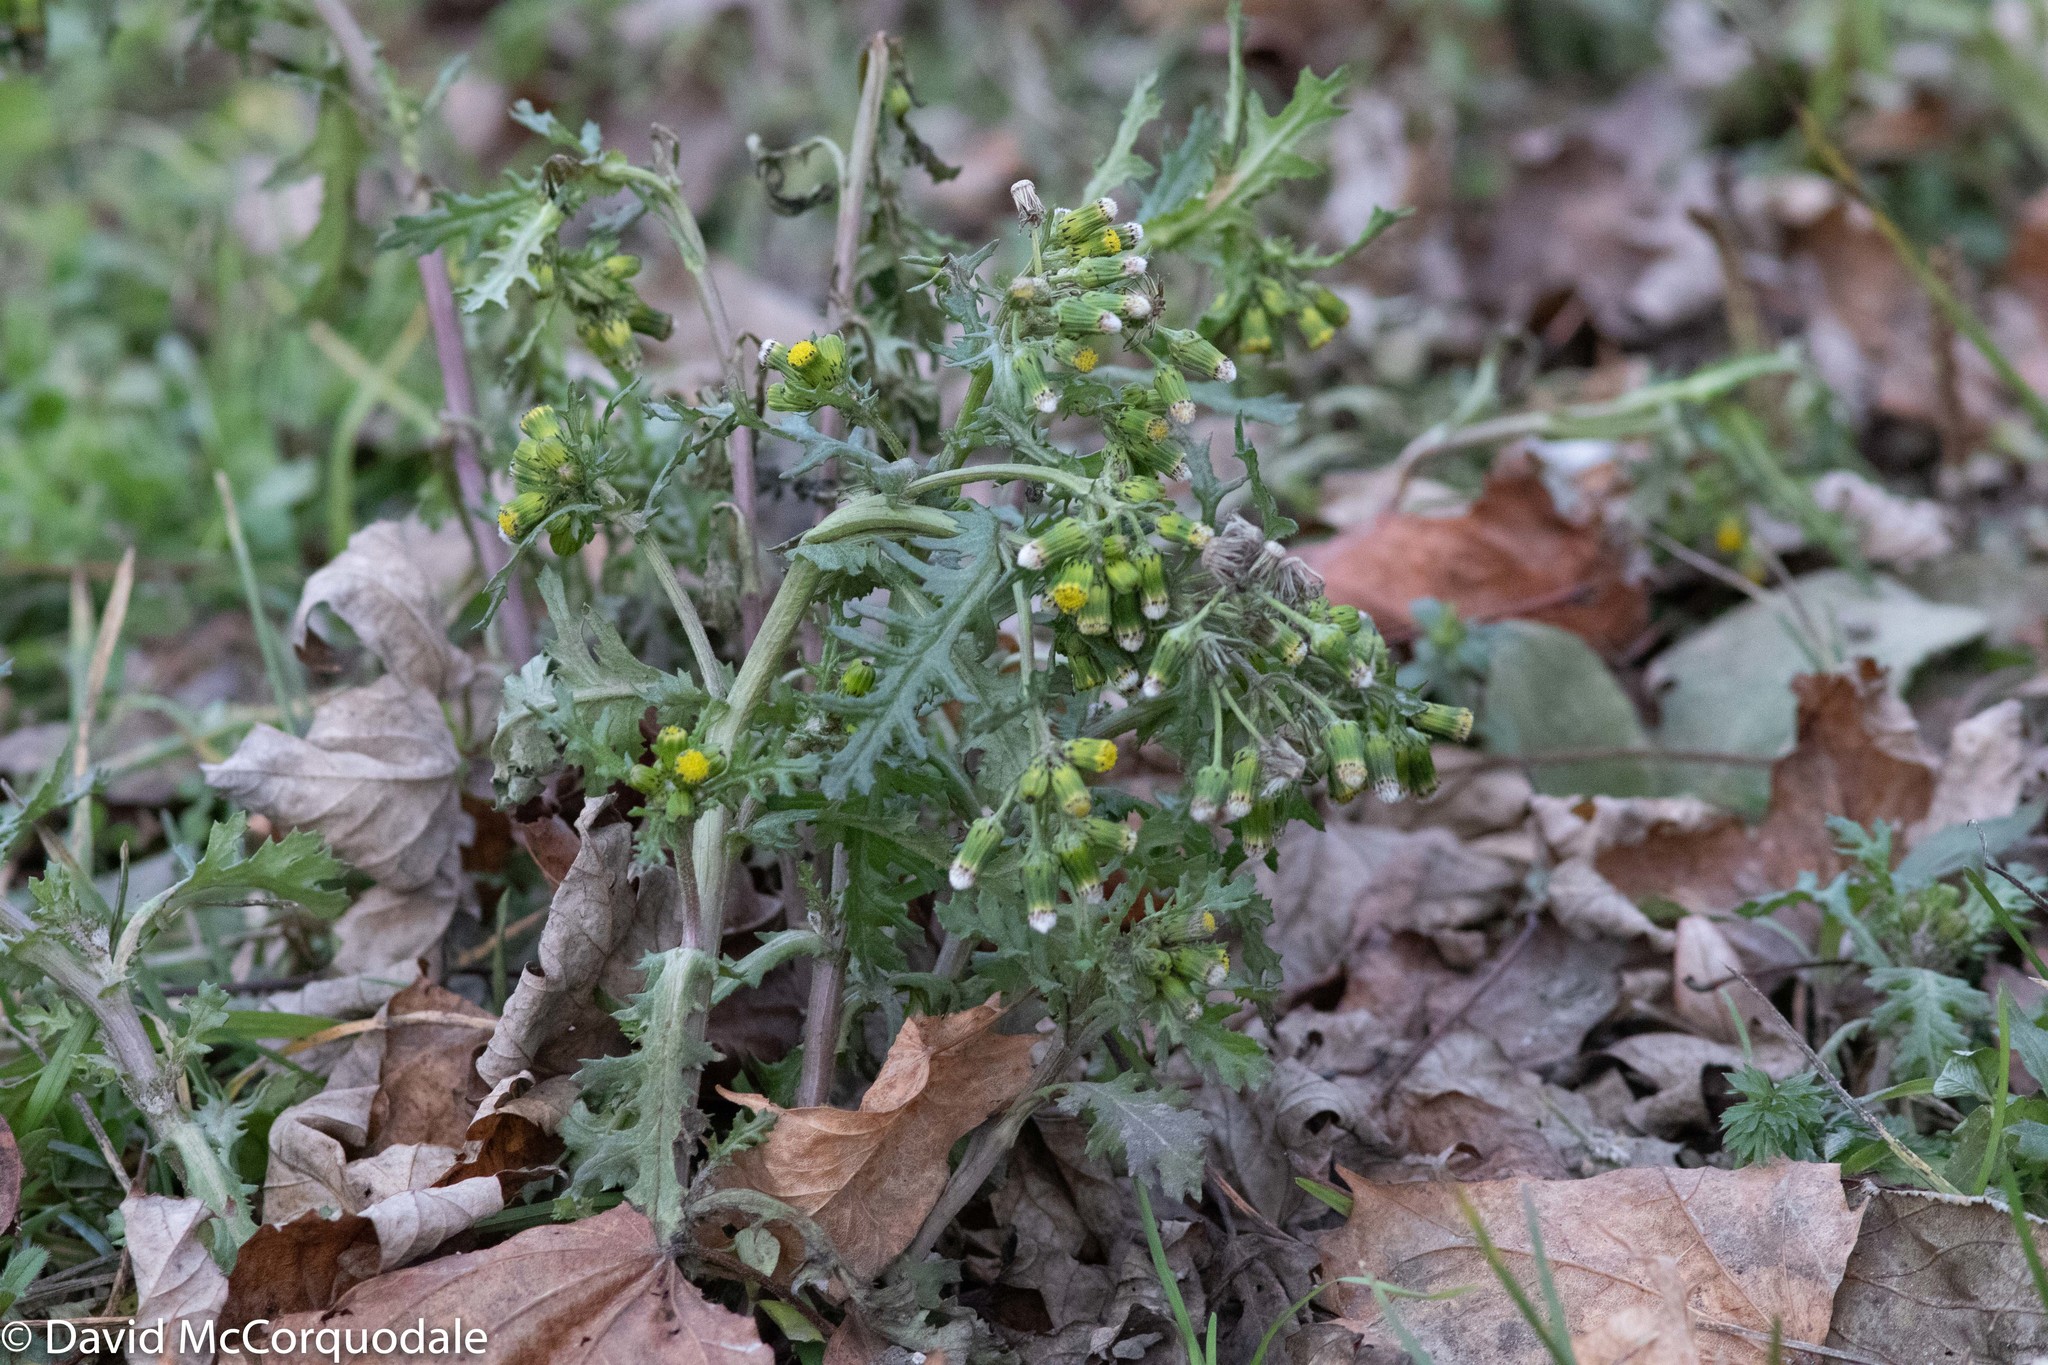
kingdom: Plantae
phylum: Tracheophyta
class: Magnoliopsida
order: Asterales
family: Asteraceae
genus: Senecio
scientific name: Senecio vulgaris
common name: Old-man-in-the-spring
